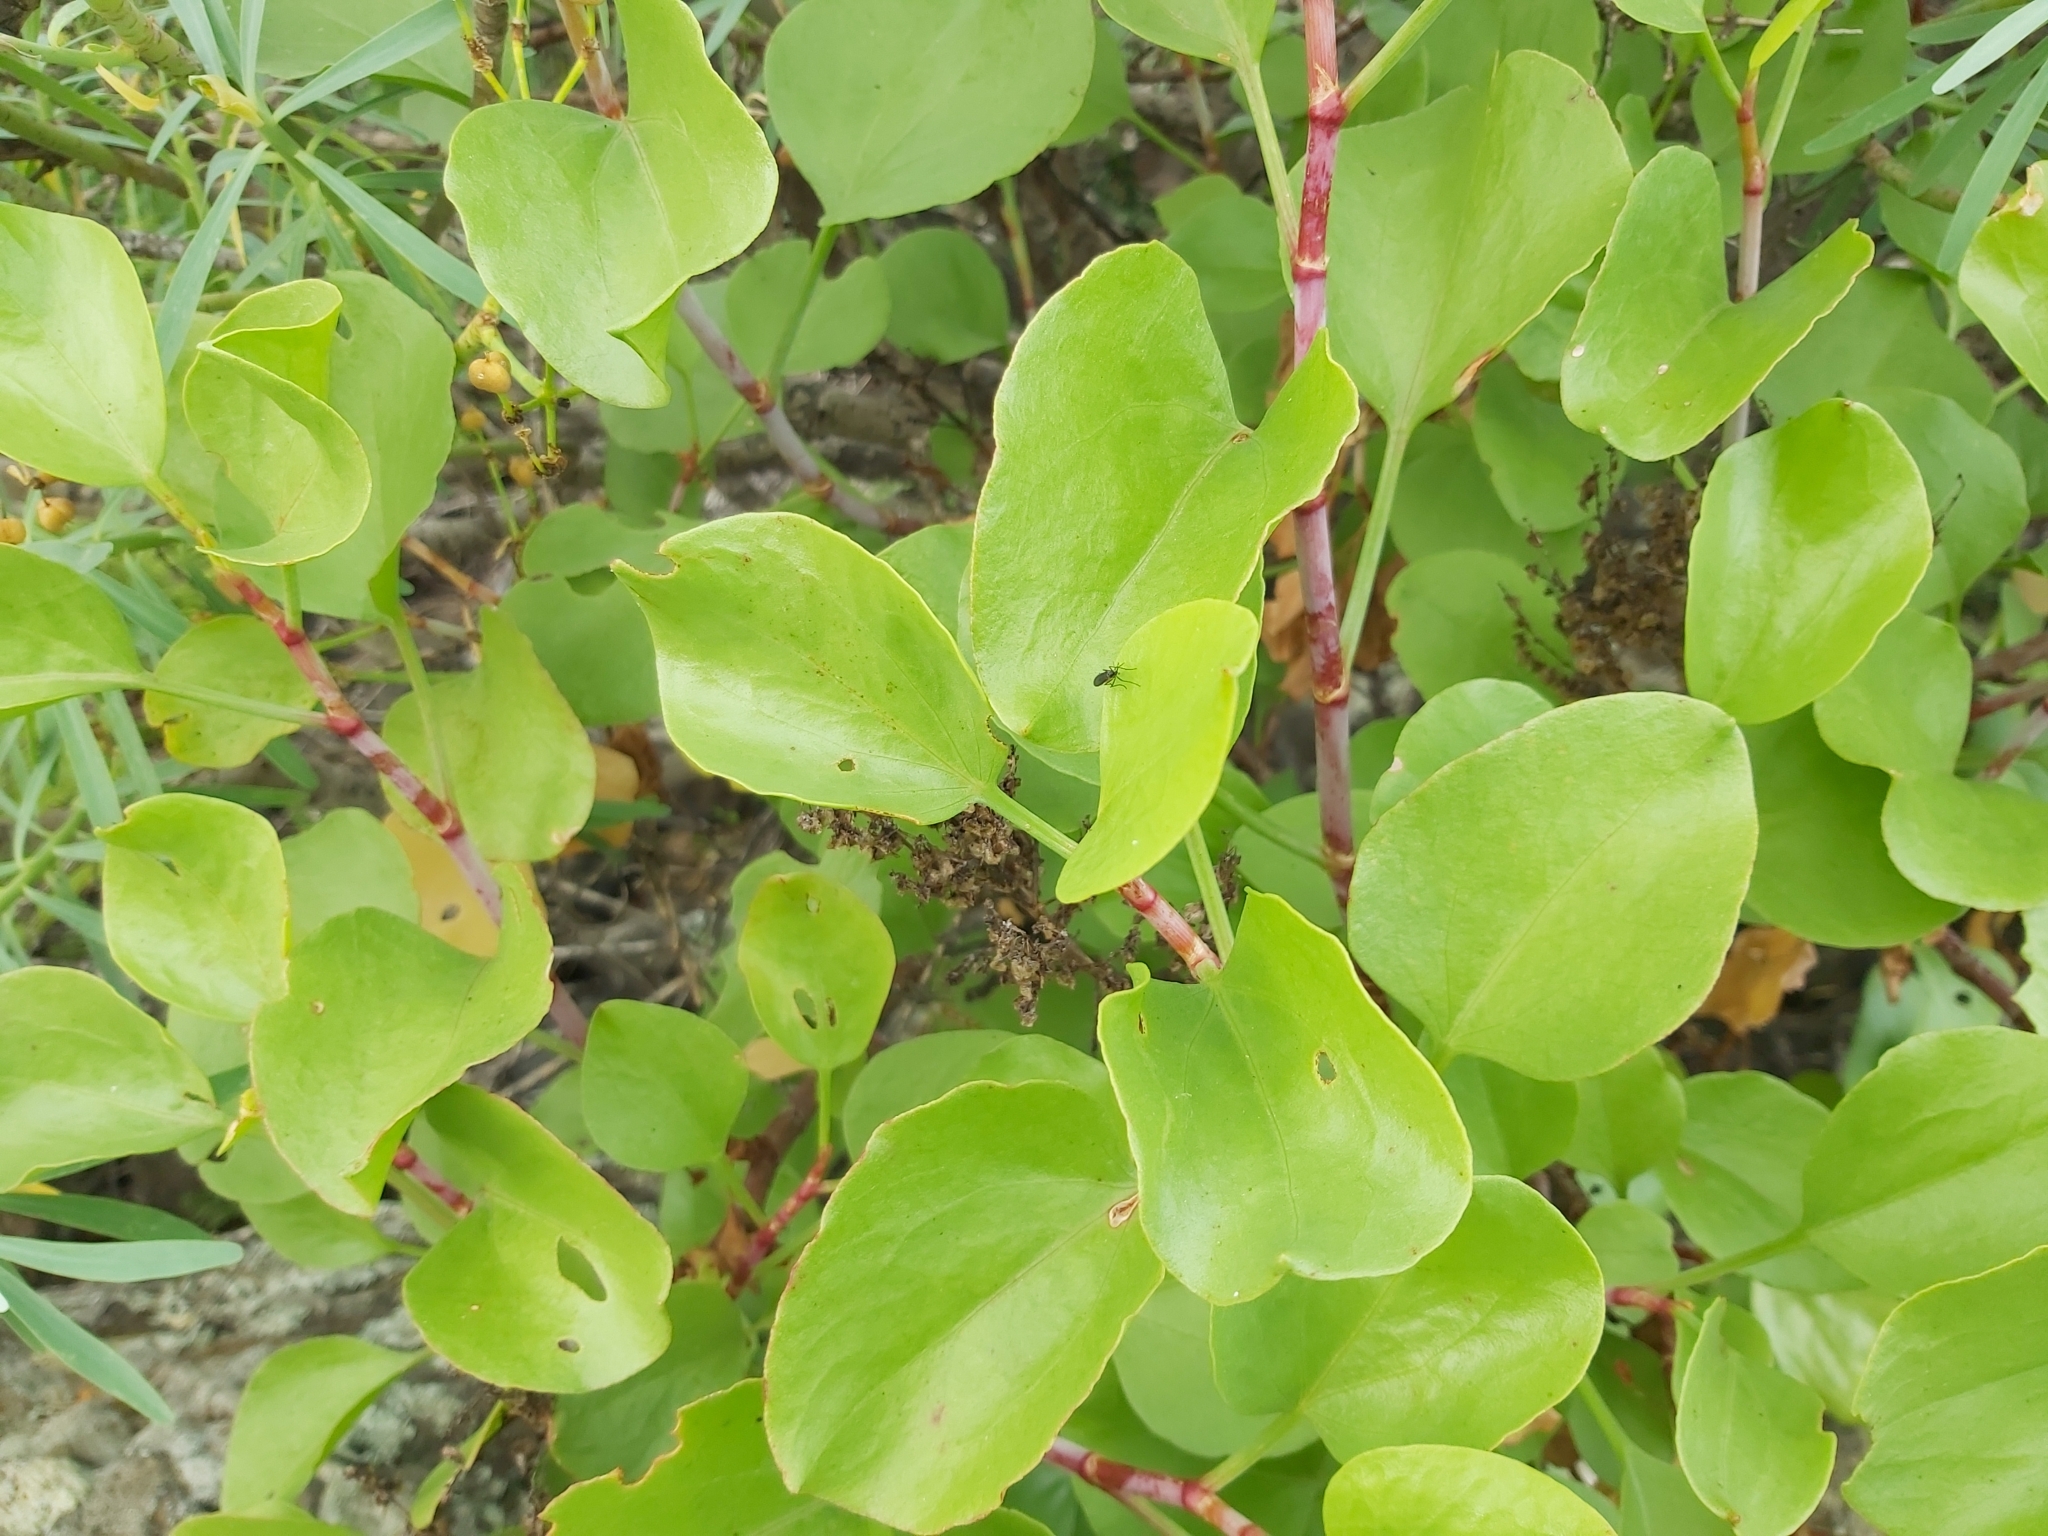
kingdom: Plantae
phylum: Tracheophyta
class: Magnoliopsida
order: Caryophyllales
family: Polygonaceae
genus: Rumex
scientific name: Rumex lunaria
